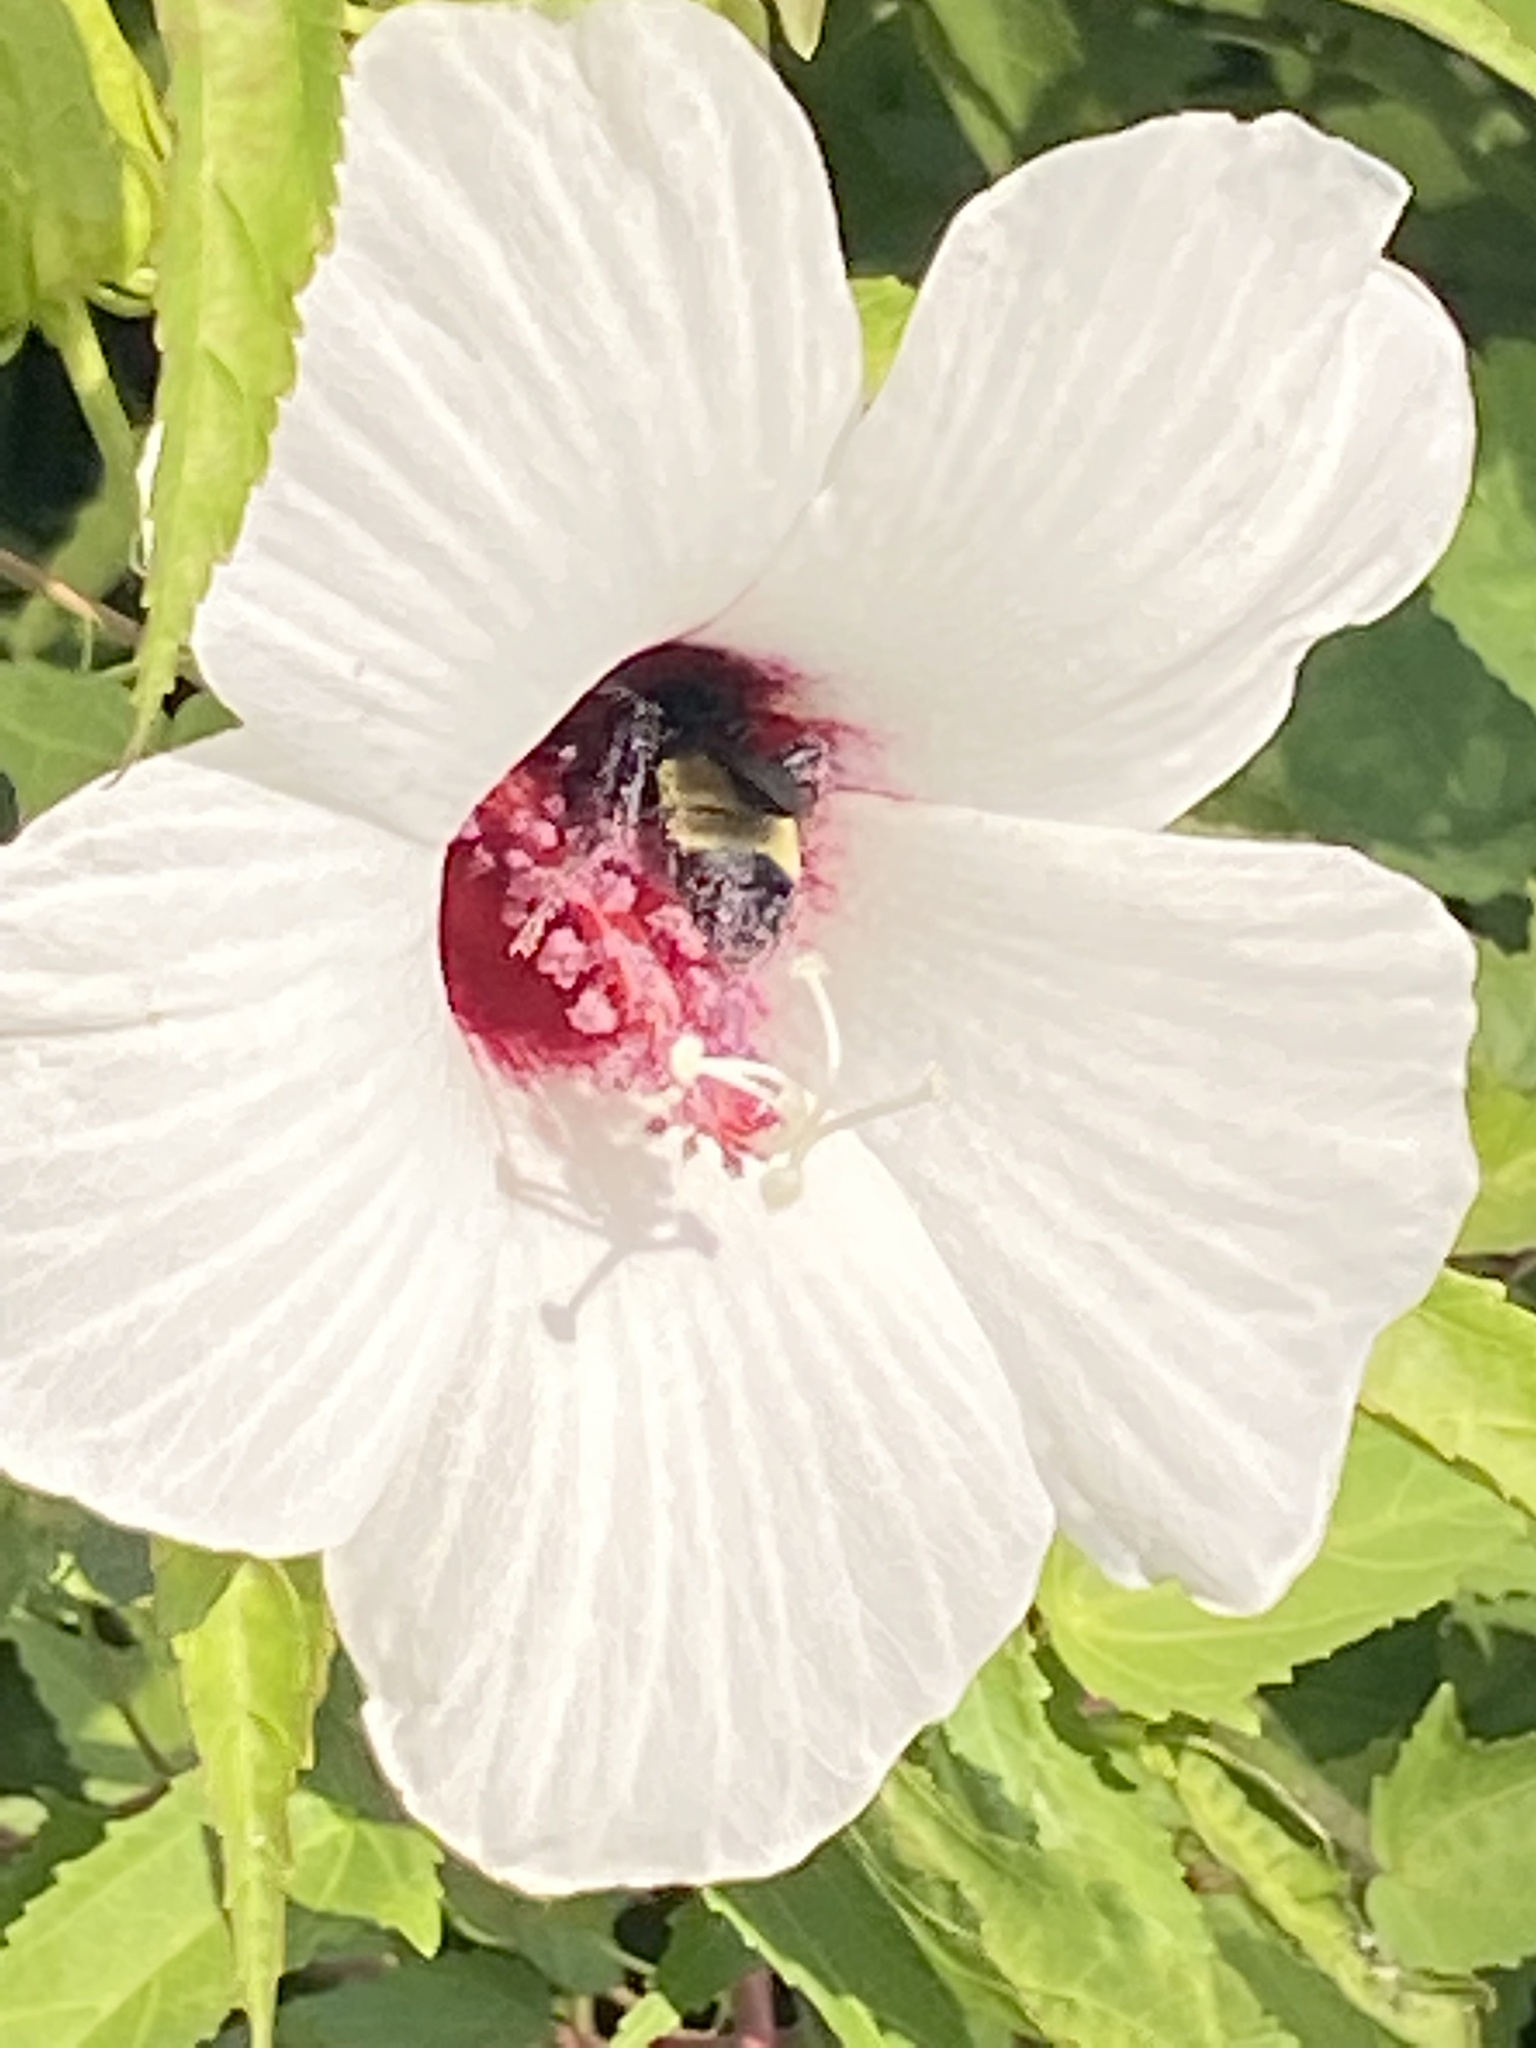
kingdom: Animalia
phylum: Arthropoda
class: Insecta
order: Hymenoptera
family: Apidae
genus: Bombus
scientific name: Bombus pensylvanicus
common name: Bumble bee
